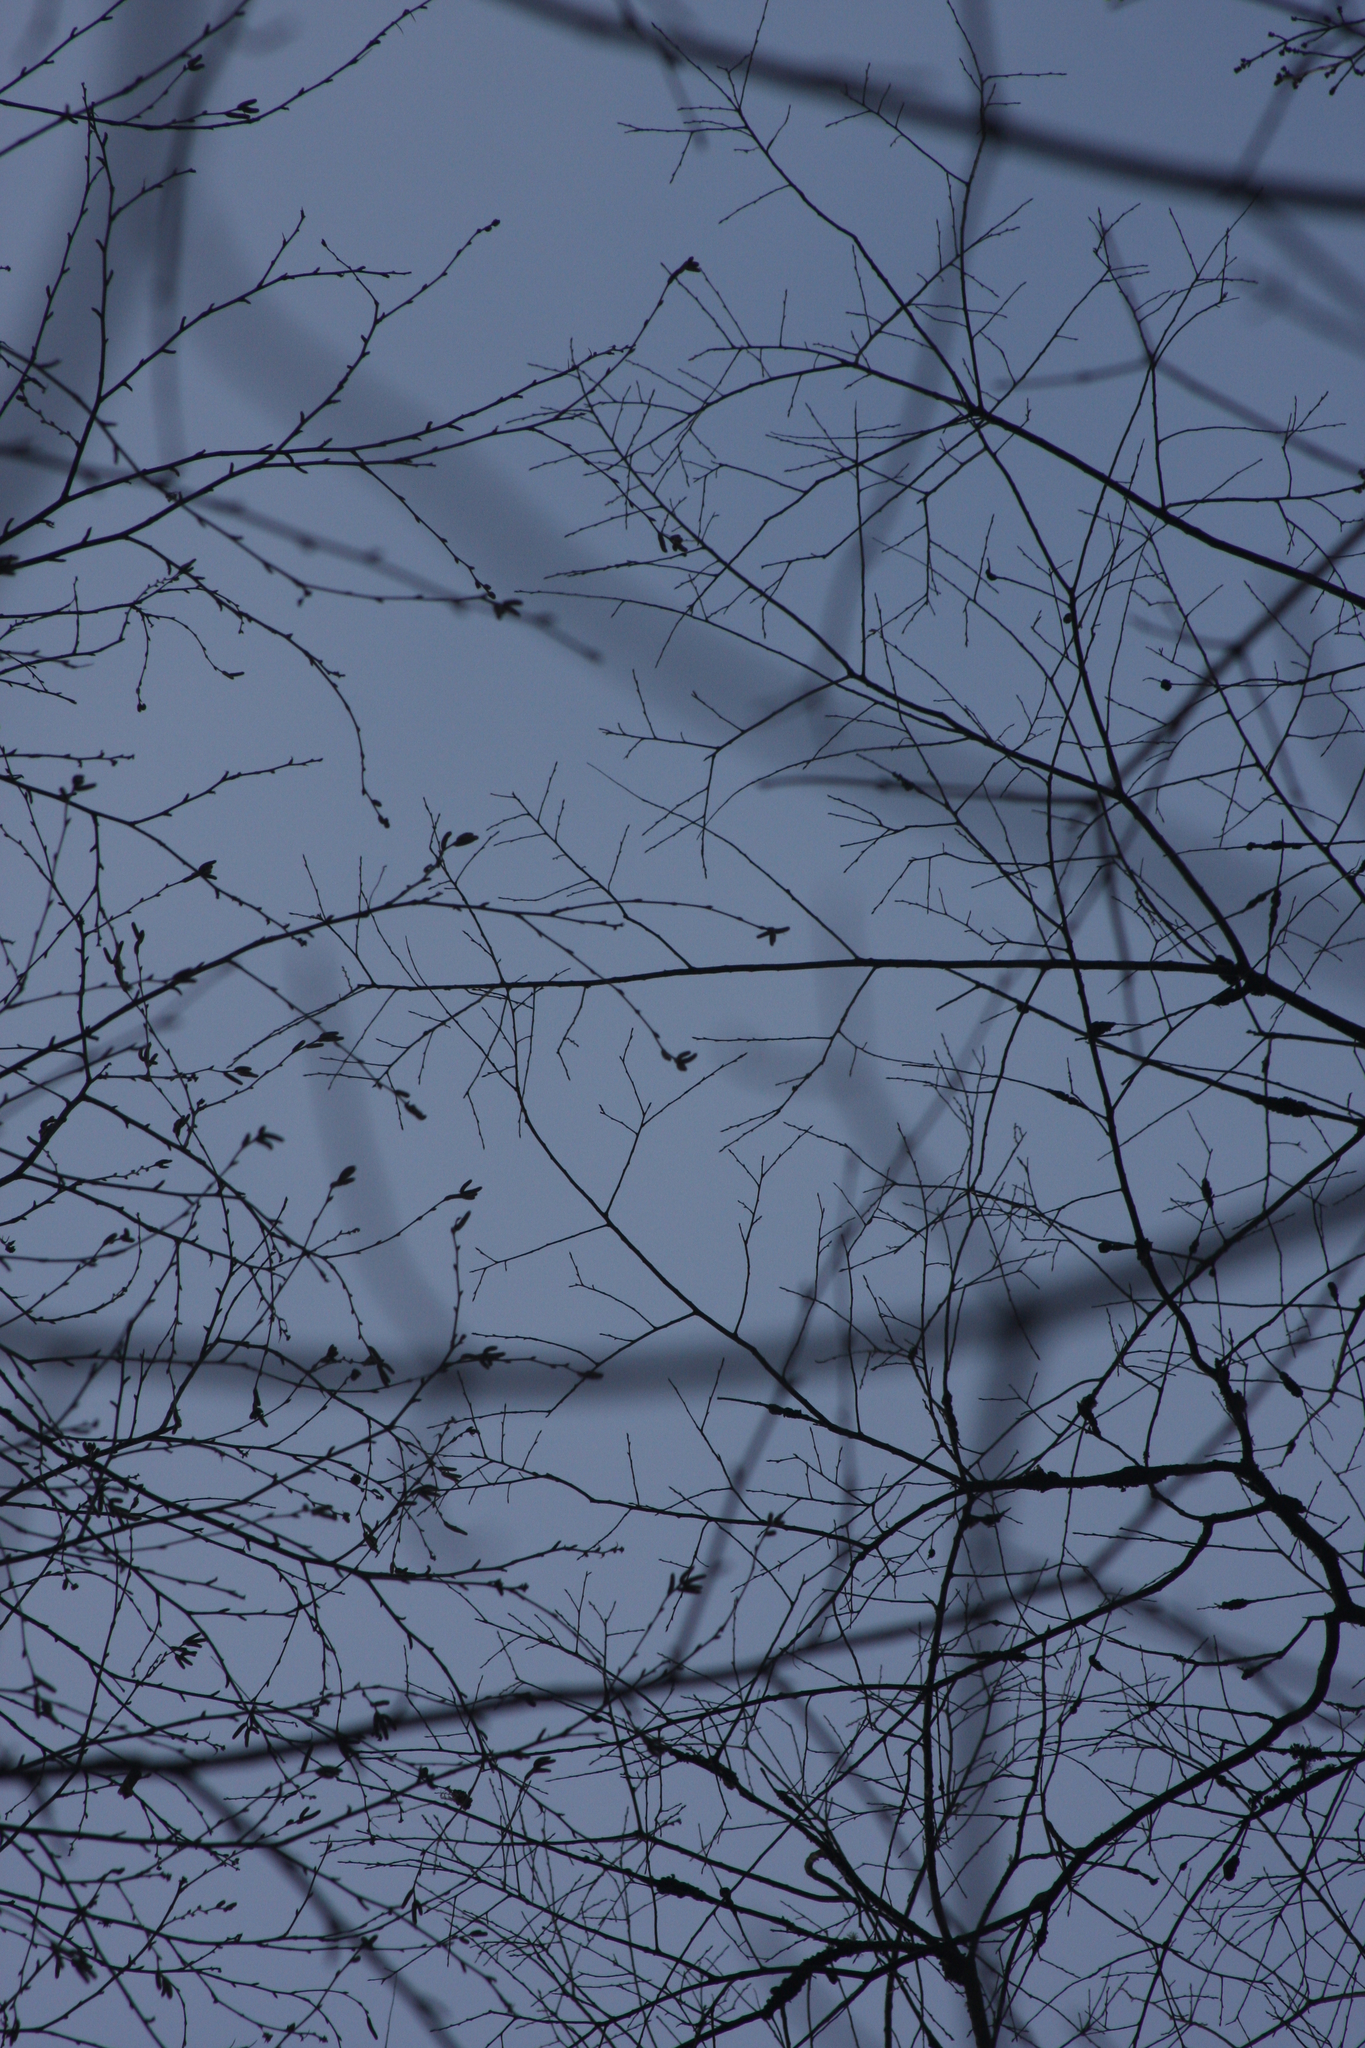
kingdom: Plantae
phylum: Tracheophyta
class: Magnoliopsida
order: Fagales
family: Betulaceae
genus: Betula
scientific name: Betula alleghaniensis
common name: Yellow birch
